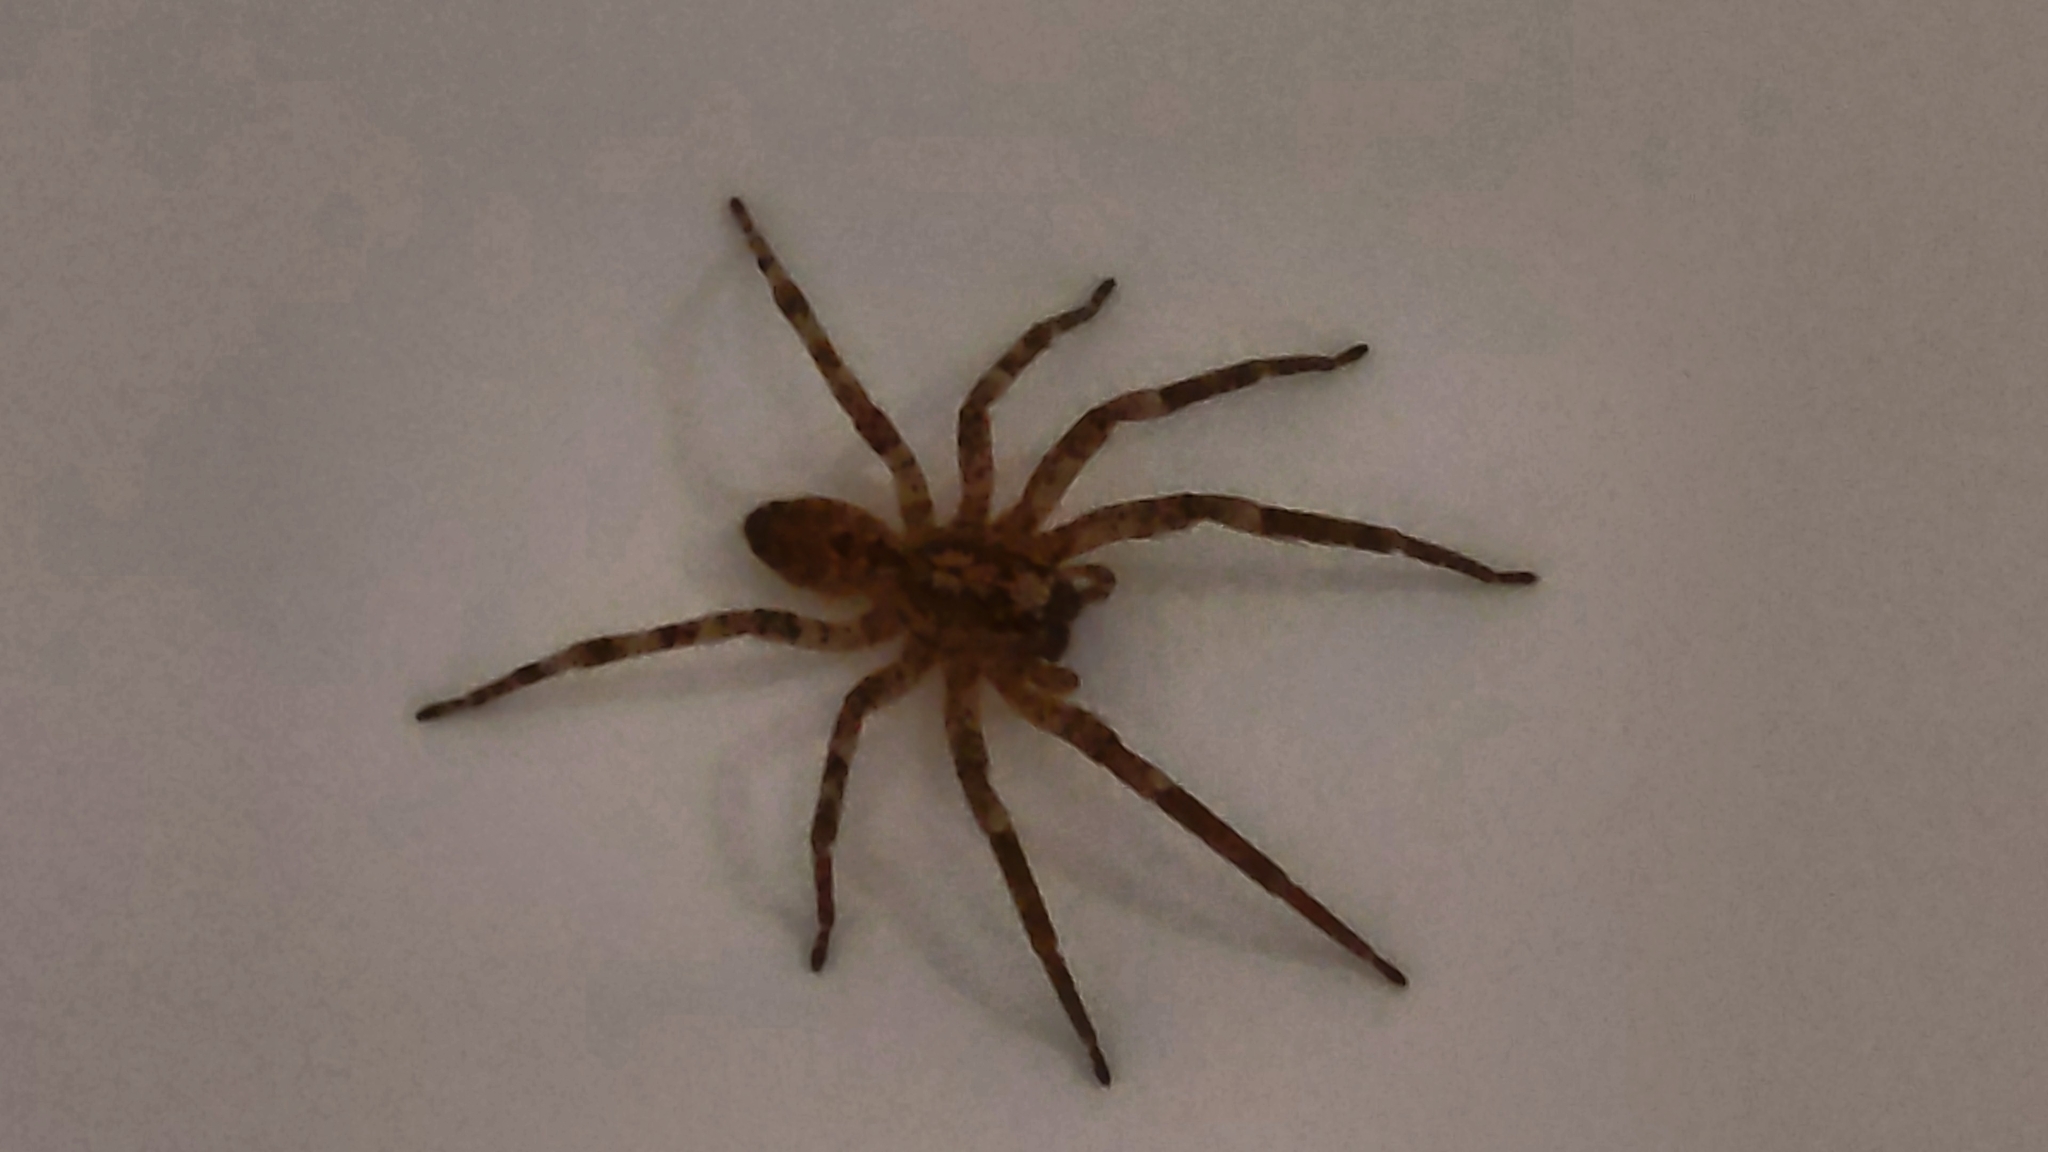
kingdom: Animalia
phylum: Arthropoda
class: Arachnida
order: Araneae
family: Zoropsidae
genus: Zoropsis
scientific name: Zoropsis spinimana
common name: Zoropsid spider
